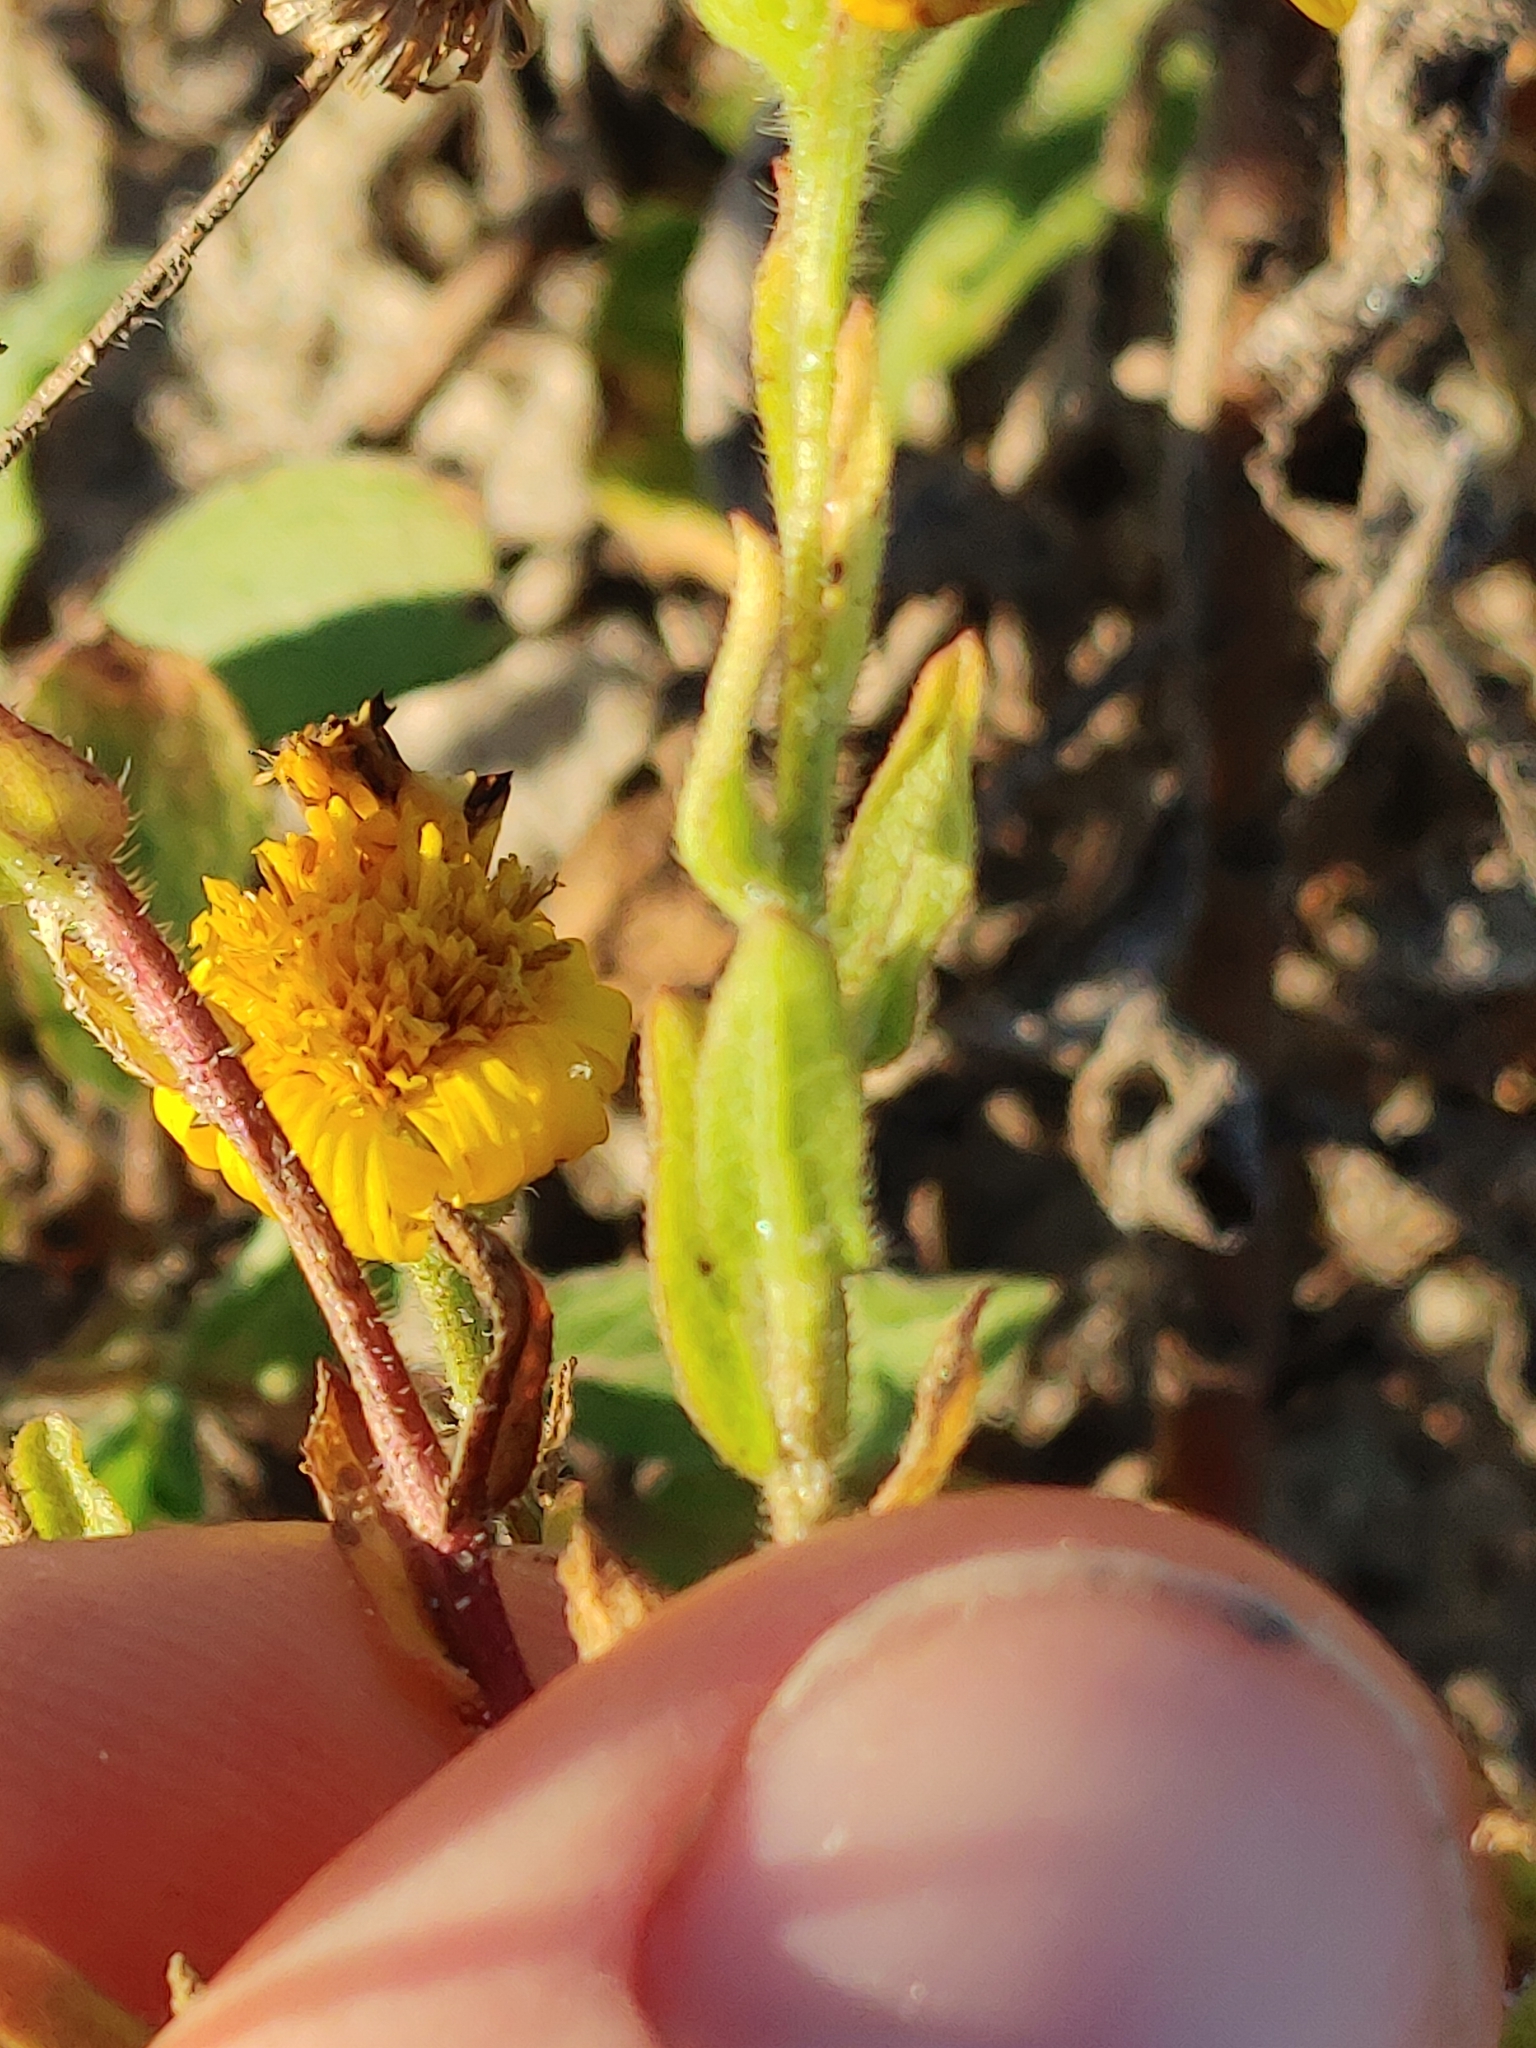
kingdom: Plantae
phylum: Tracheophyta
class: Magnoliopsida
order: Asterales
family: Asteraceae
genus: Heterotheca
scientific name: Heterotheca subaxillaris
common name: Camphorweed
